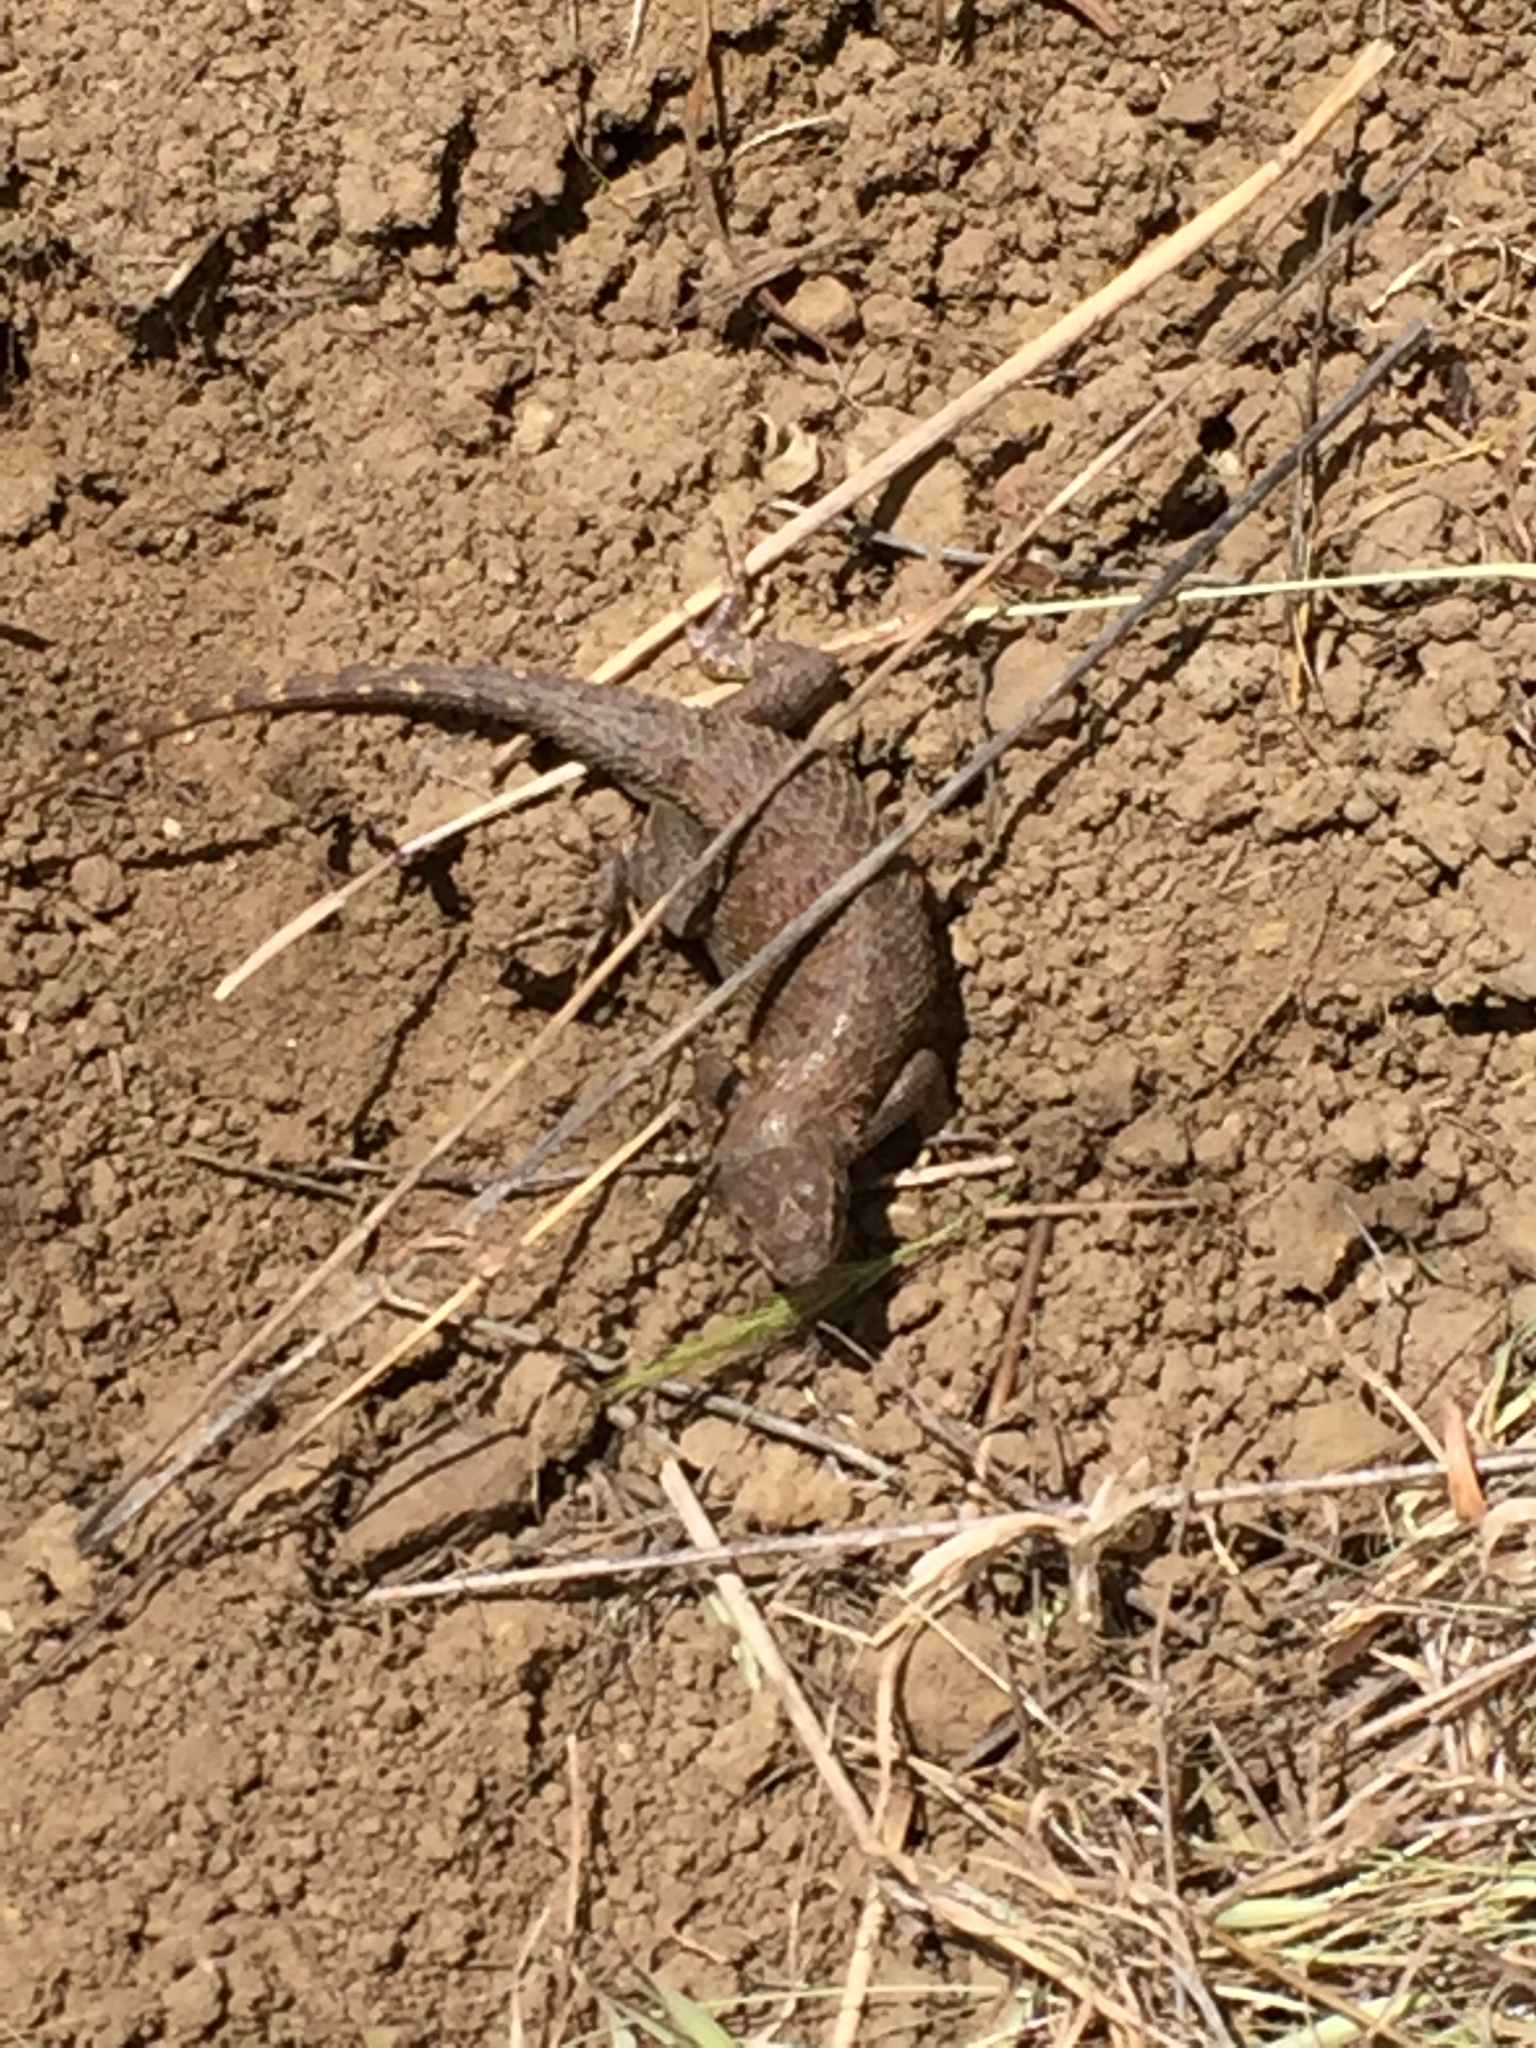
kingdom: Animalia
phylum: Chordata
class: Squamata
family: Phrynosomatidae
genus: Sceloporus
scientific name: Sceloporus occidentalis
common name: Western fence lizard
